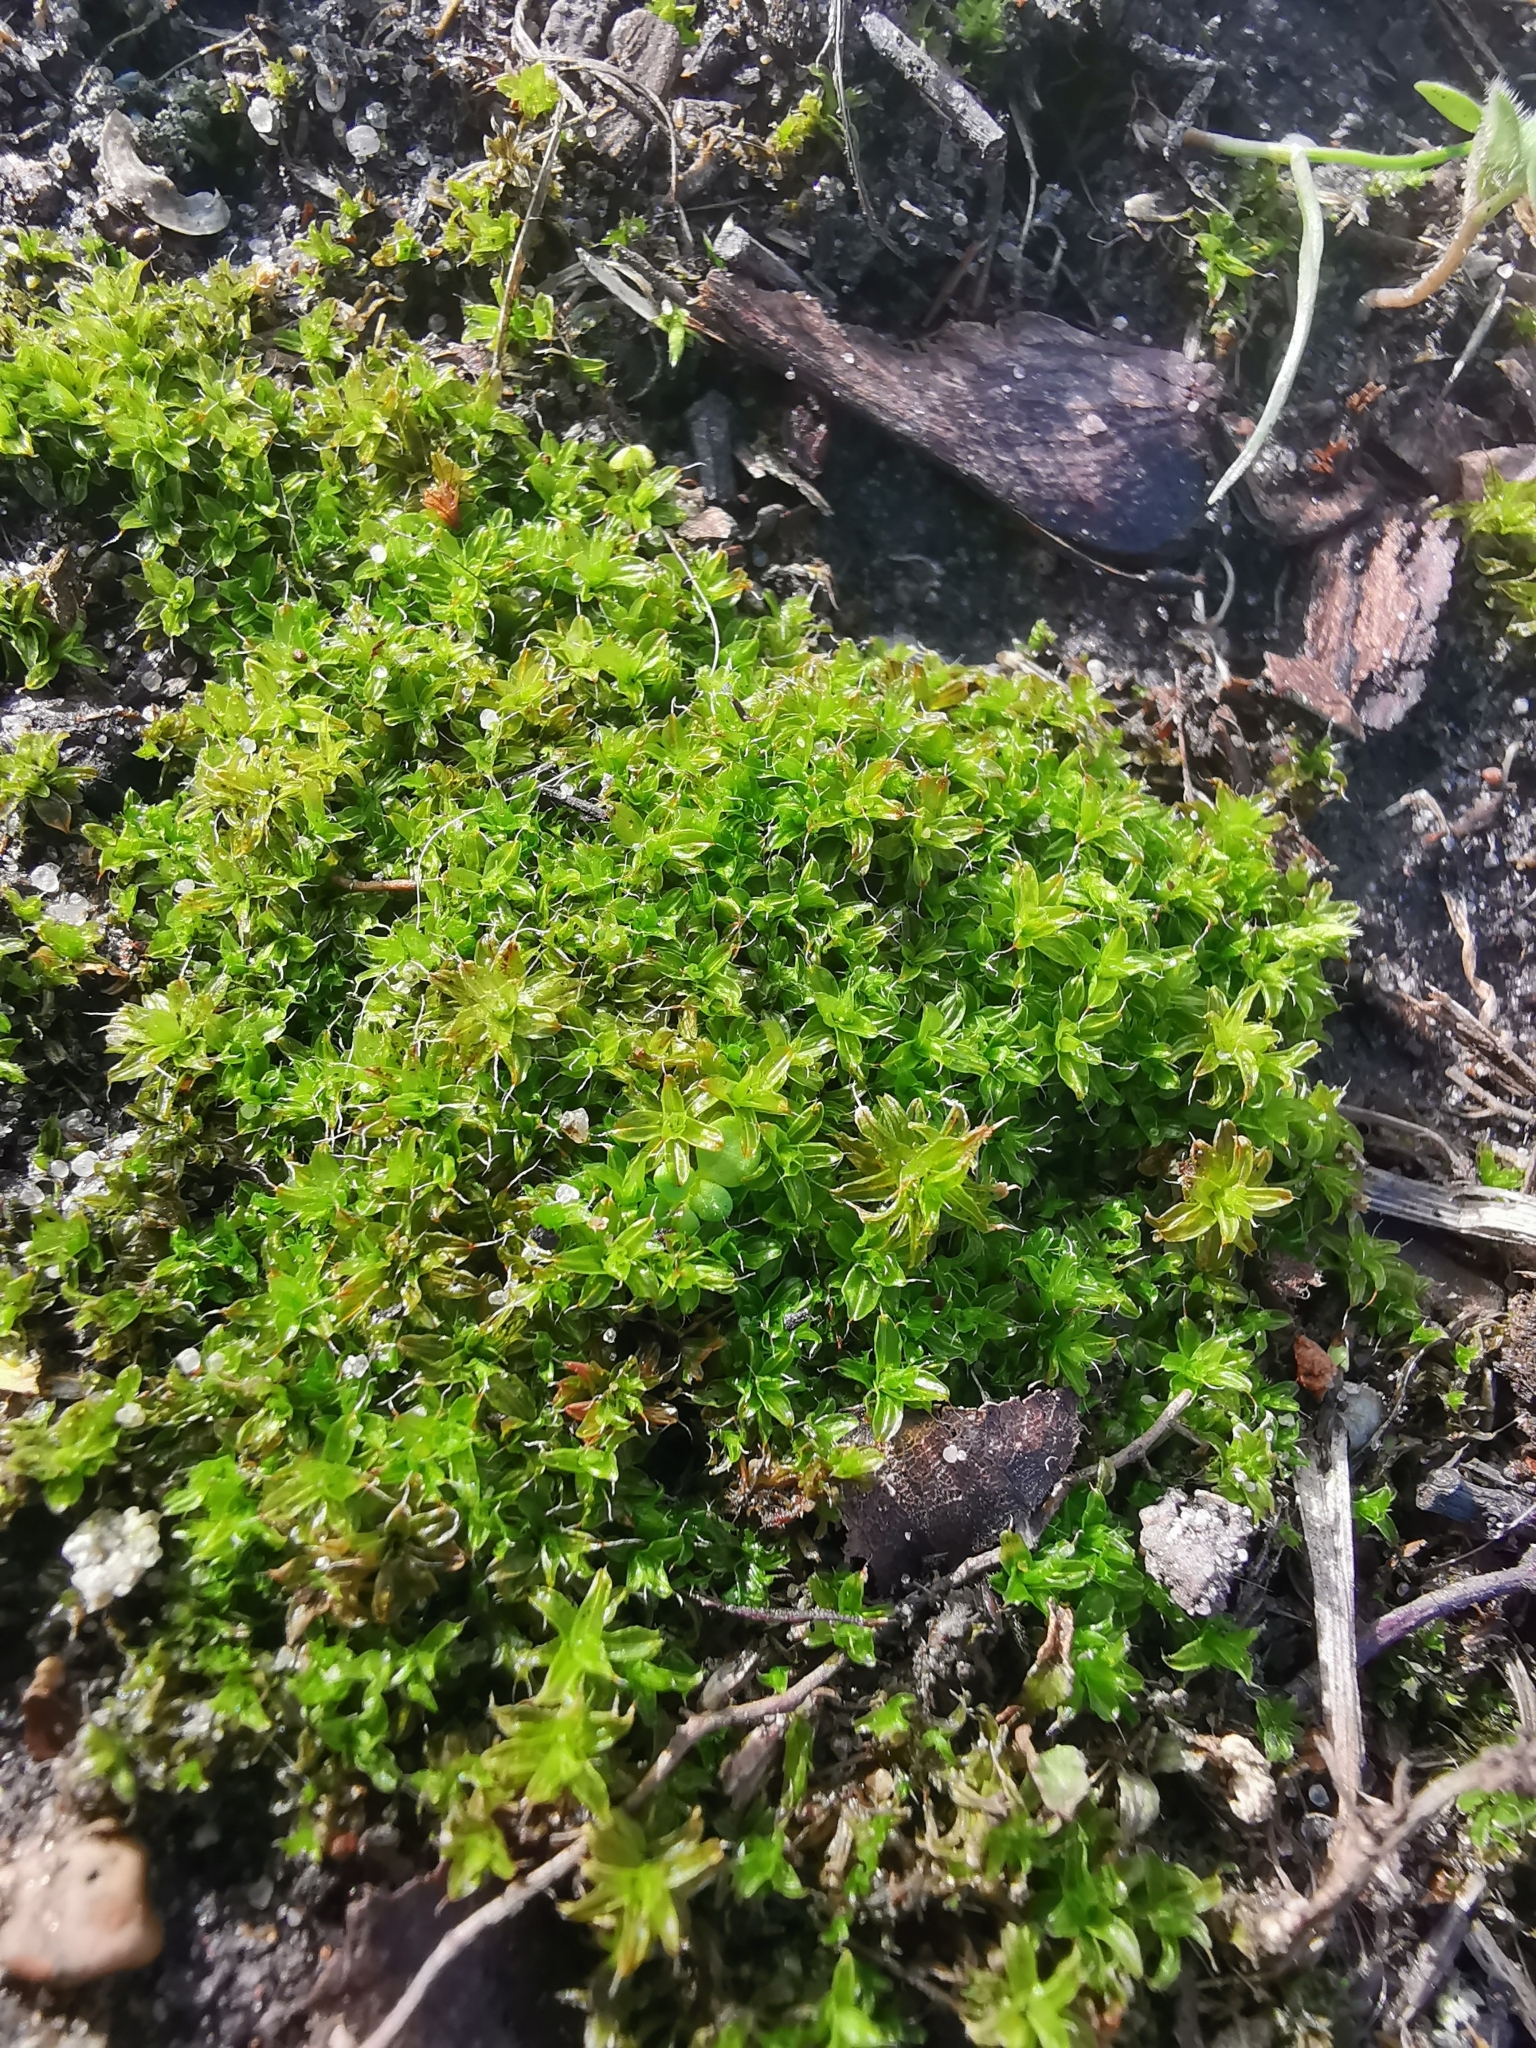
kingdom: Plantae
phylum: Bryophyta
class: Bryopsida
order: Pottiales
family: Pottiaceae
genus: Syntrichia
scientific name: Syntrichia ruralis
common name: Sidewalk screw moss
